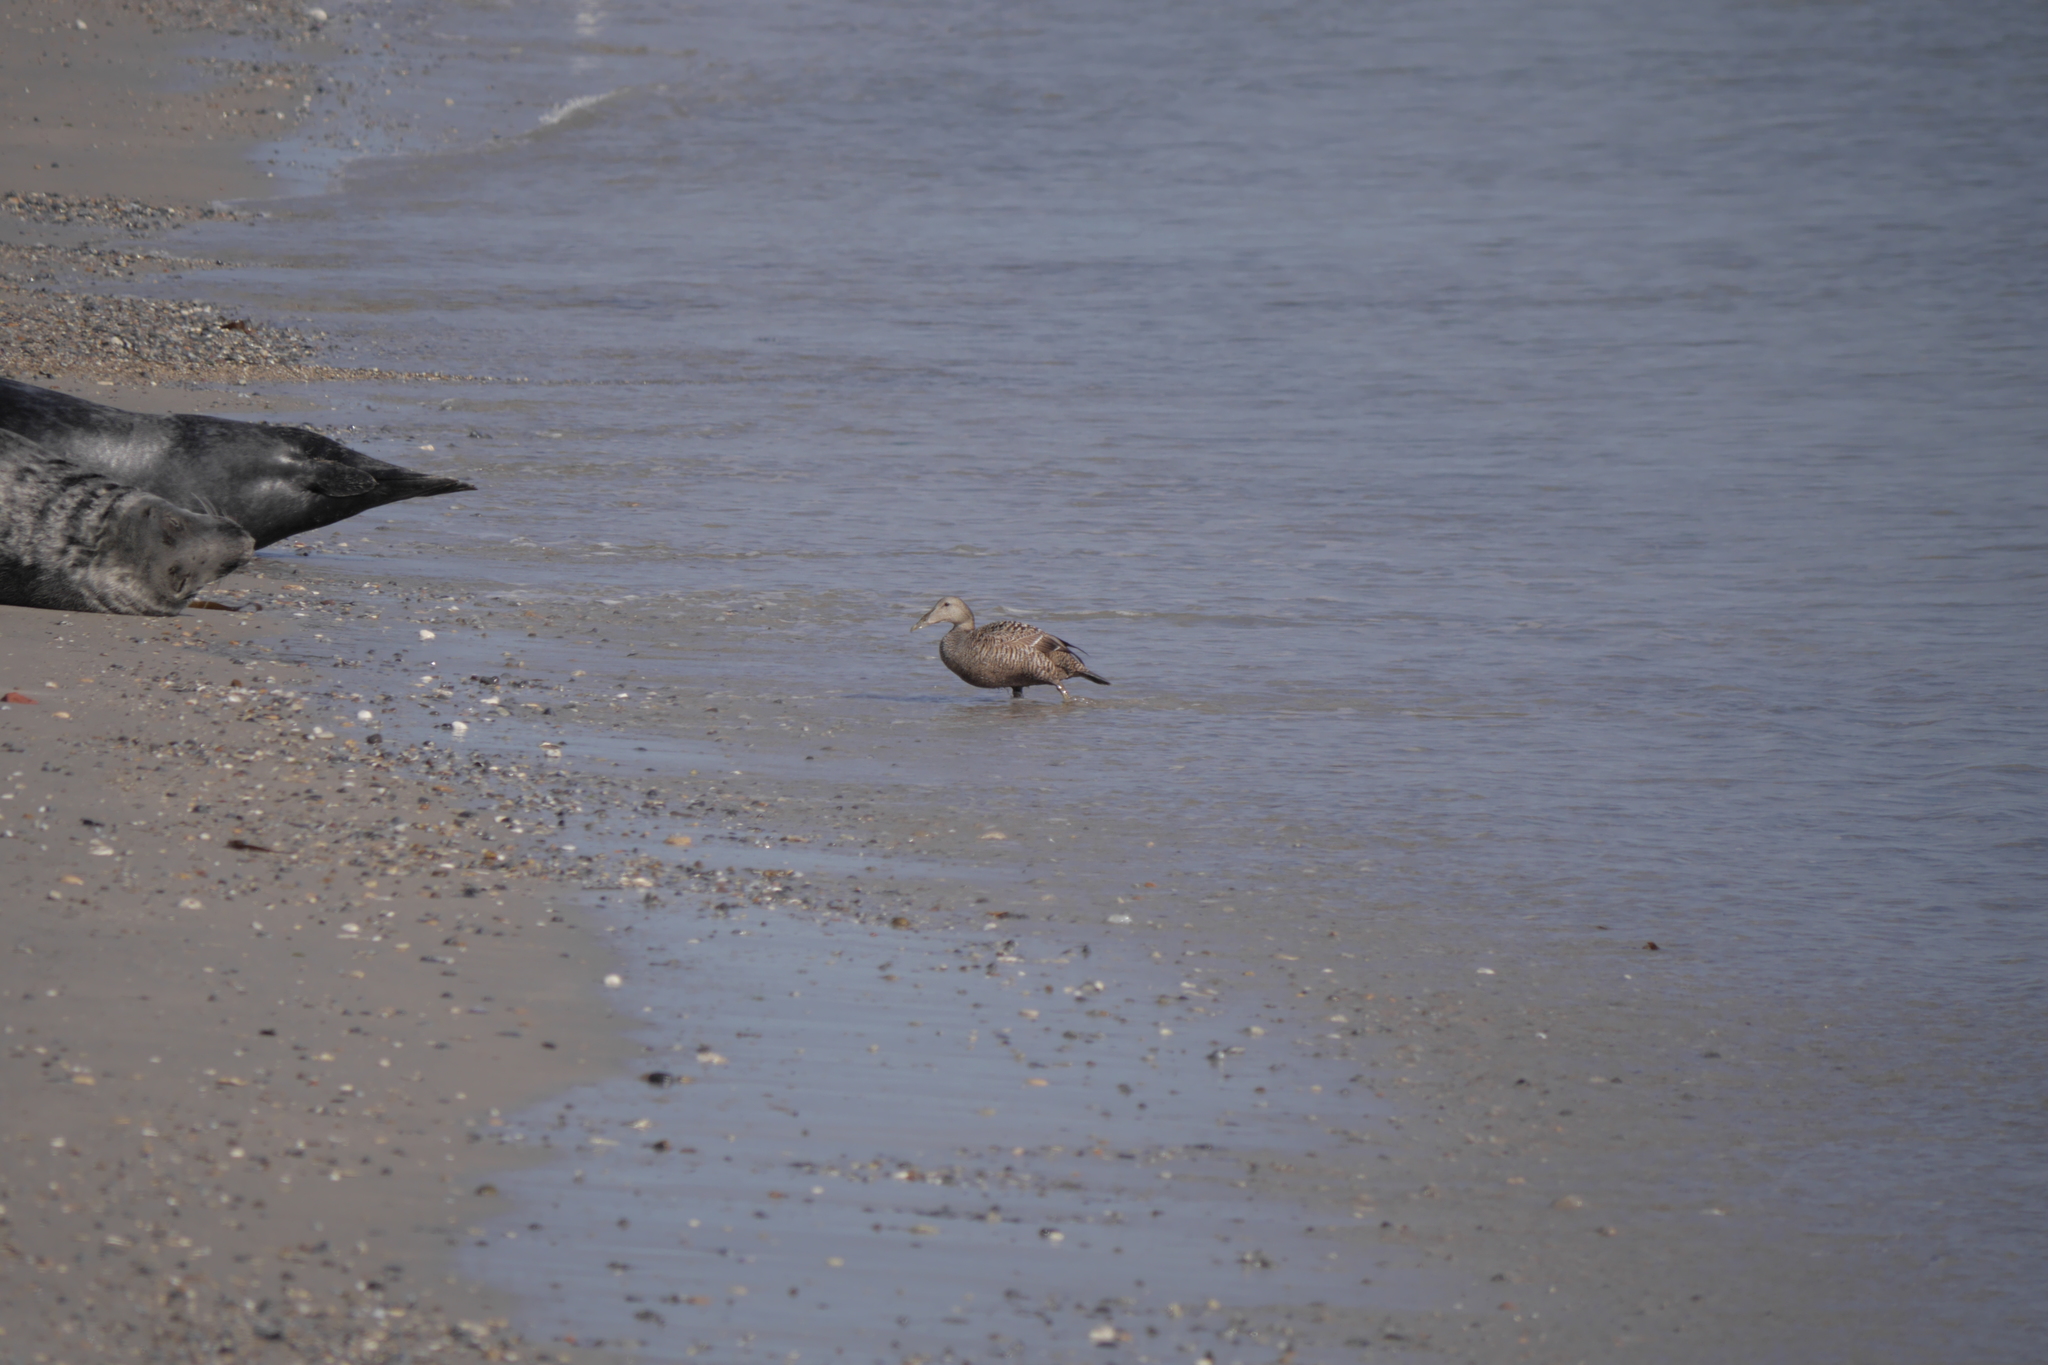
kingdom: Animalia
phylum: Chordata
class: Aves
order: Anseriformes
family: Anatidae
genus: Somateria
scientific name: Somateria mollissima
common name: Common eider
